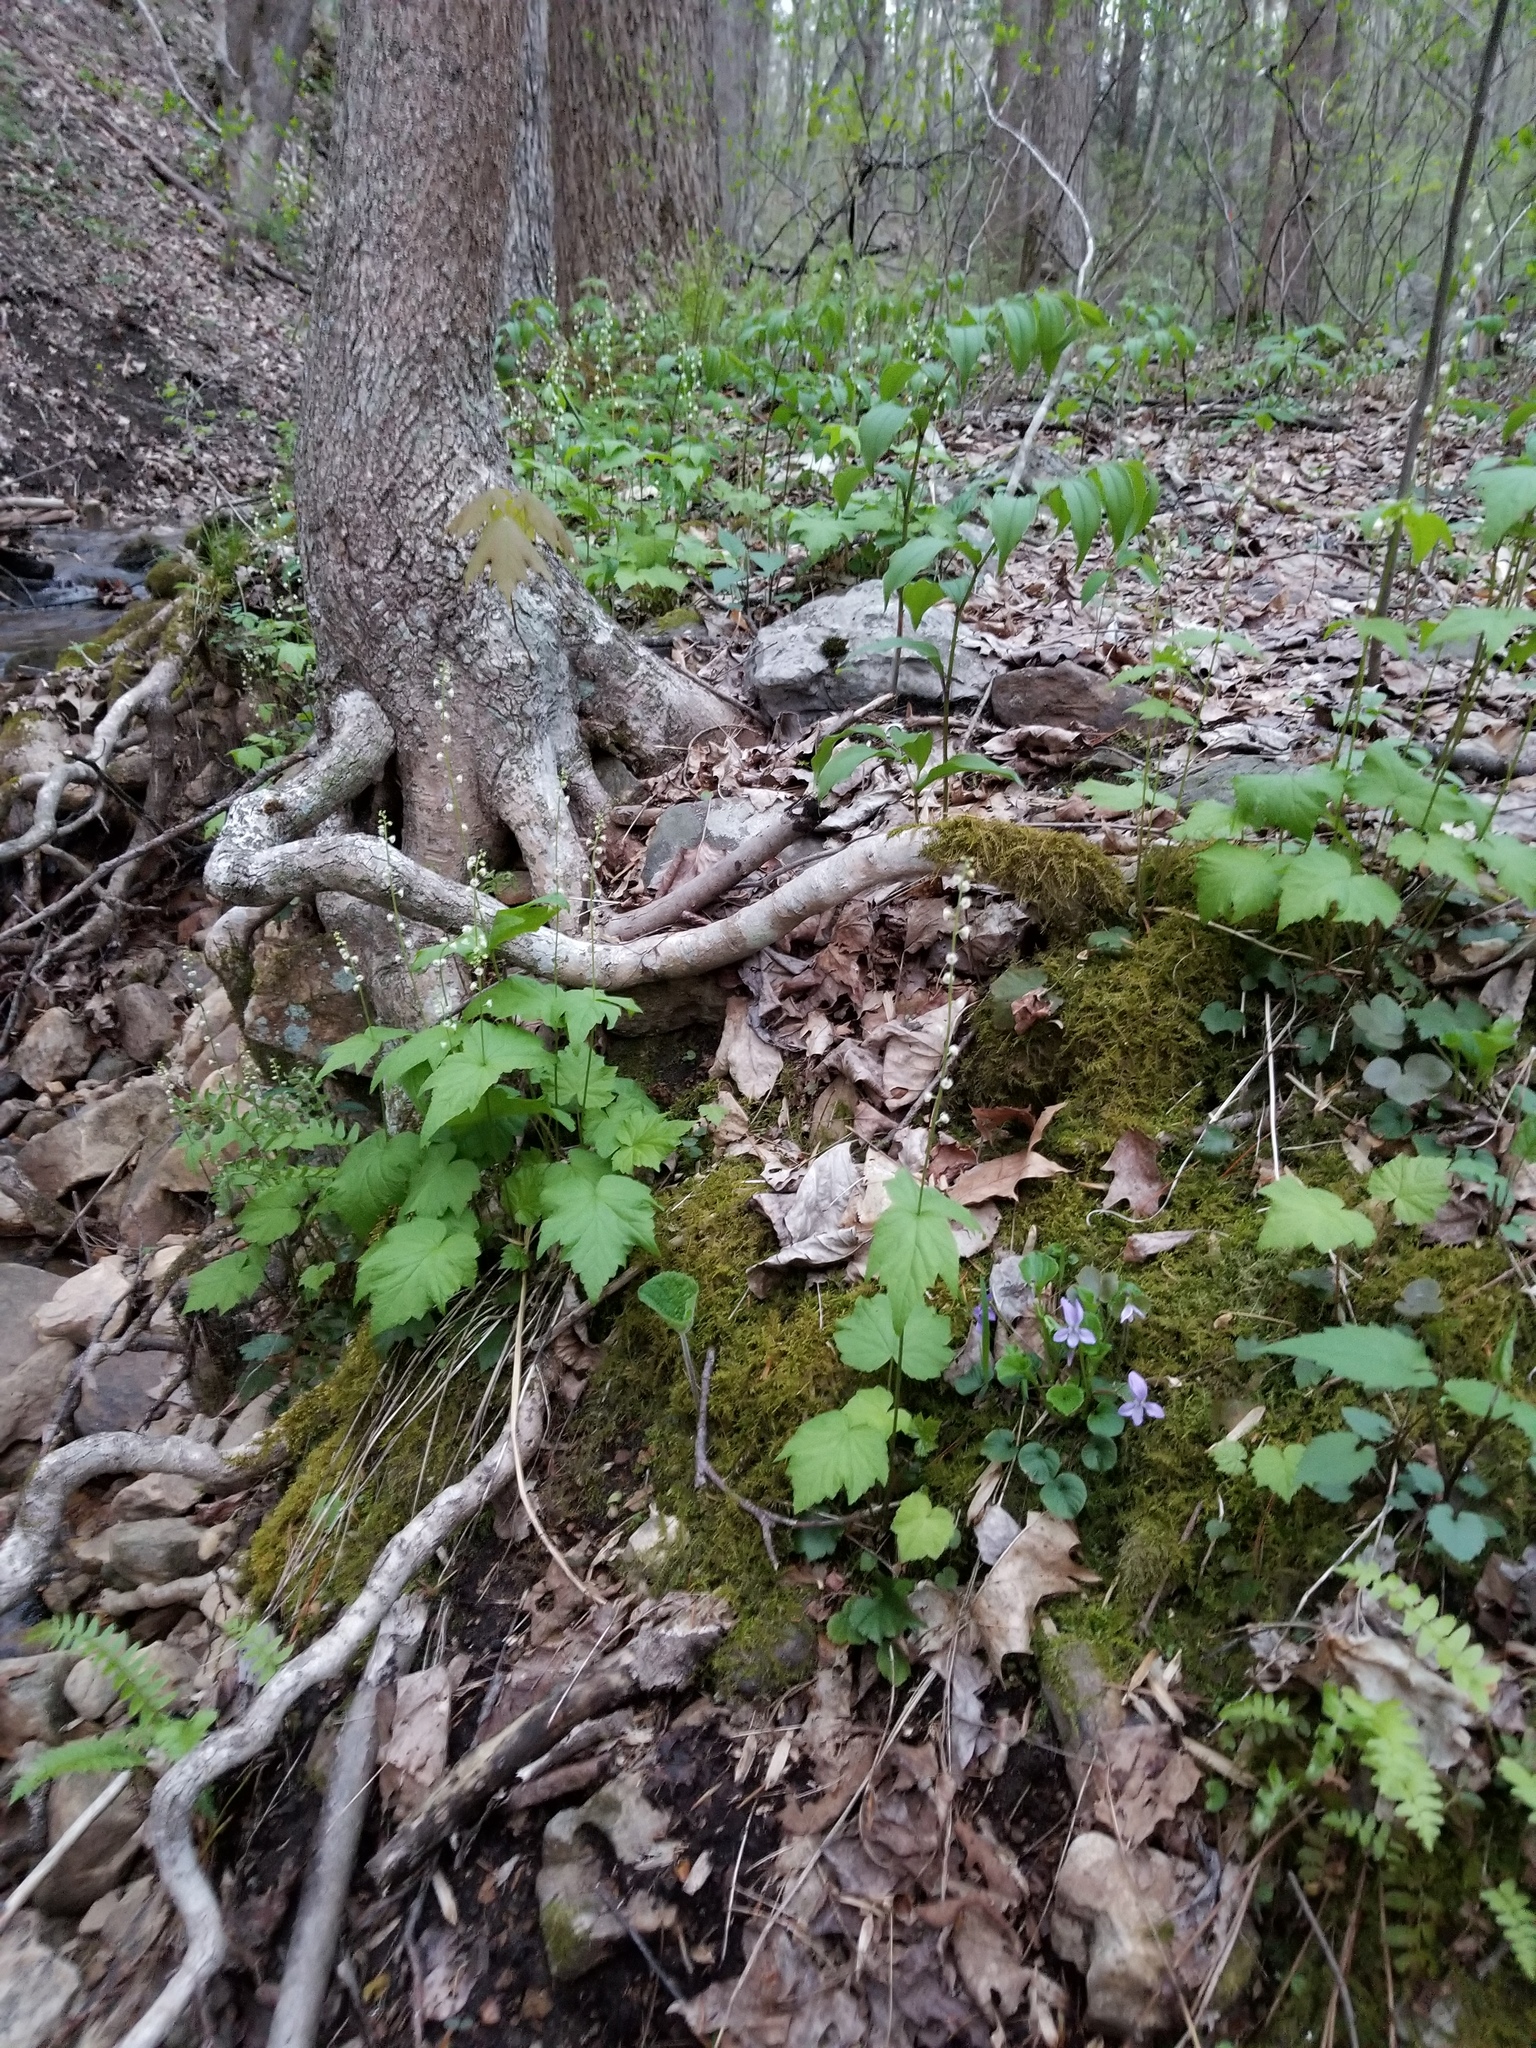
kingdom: Plantae
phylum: Tracheophyta
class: Magnoliopsida
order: Saxifragales
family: Saxifragaceae
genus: Mitella
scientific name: Mitella diphylla
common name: Coolwort
